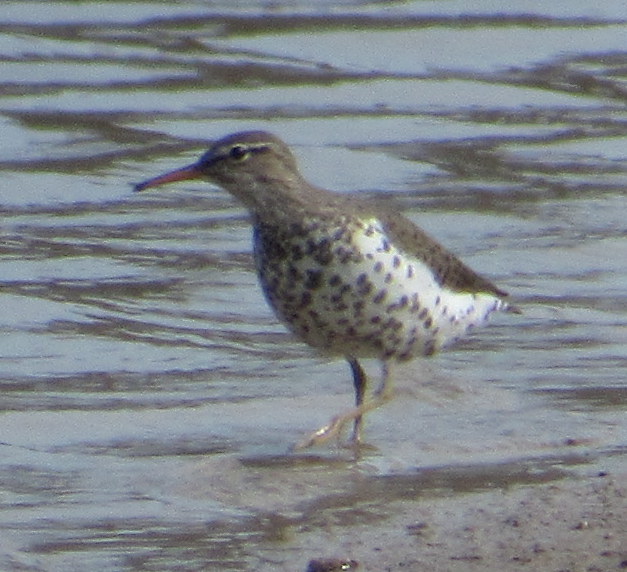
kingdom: Animalia
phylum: Chordata
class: Aves
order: Charadriiformes
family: Scolopacidae
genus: Actitis
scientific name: Actitis macularius
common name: Spotted sandpiper
